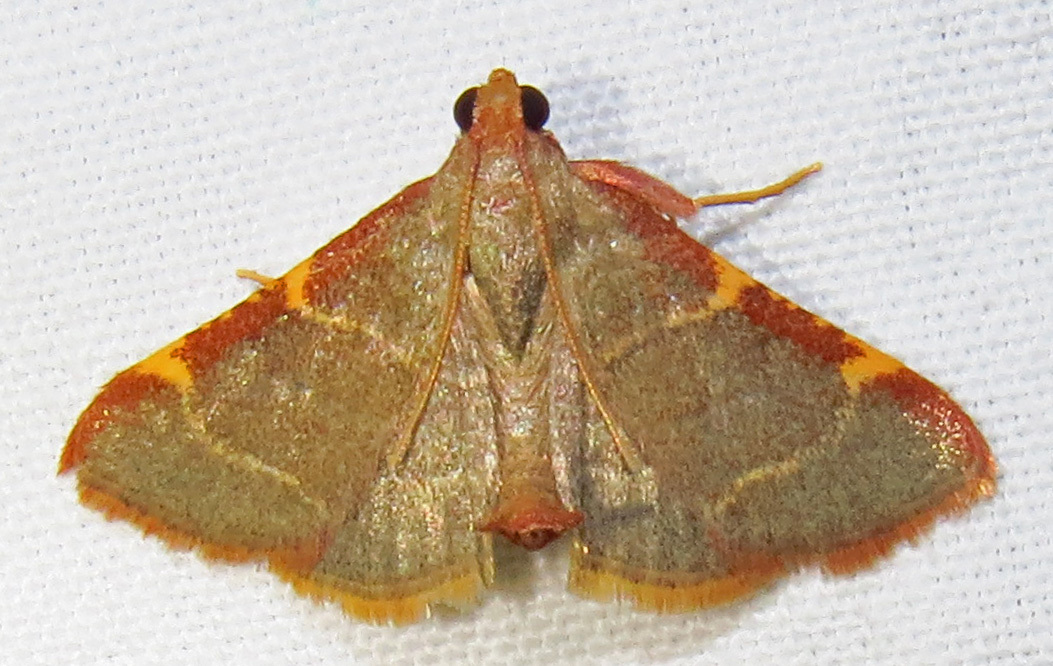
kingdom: Animalia
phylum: Arthropoda
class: Insecta
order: Lepidoptera
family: Pyralidae
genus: Hypsopygia
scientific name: Hypsopygia binodulalis
